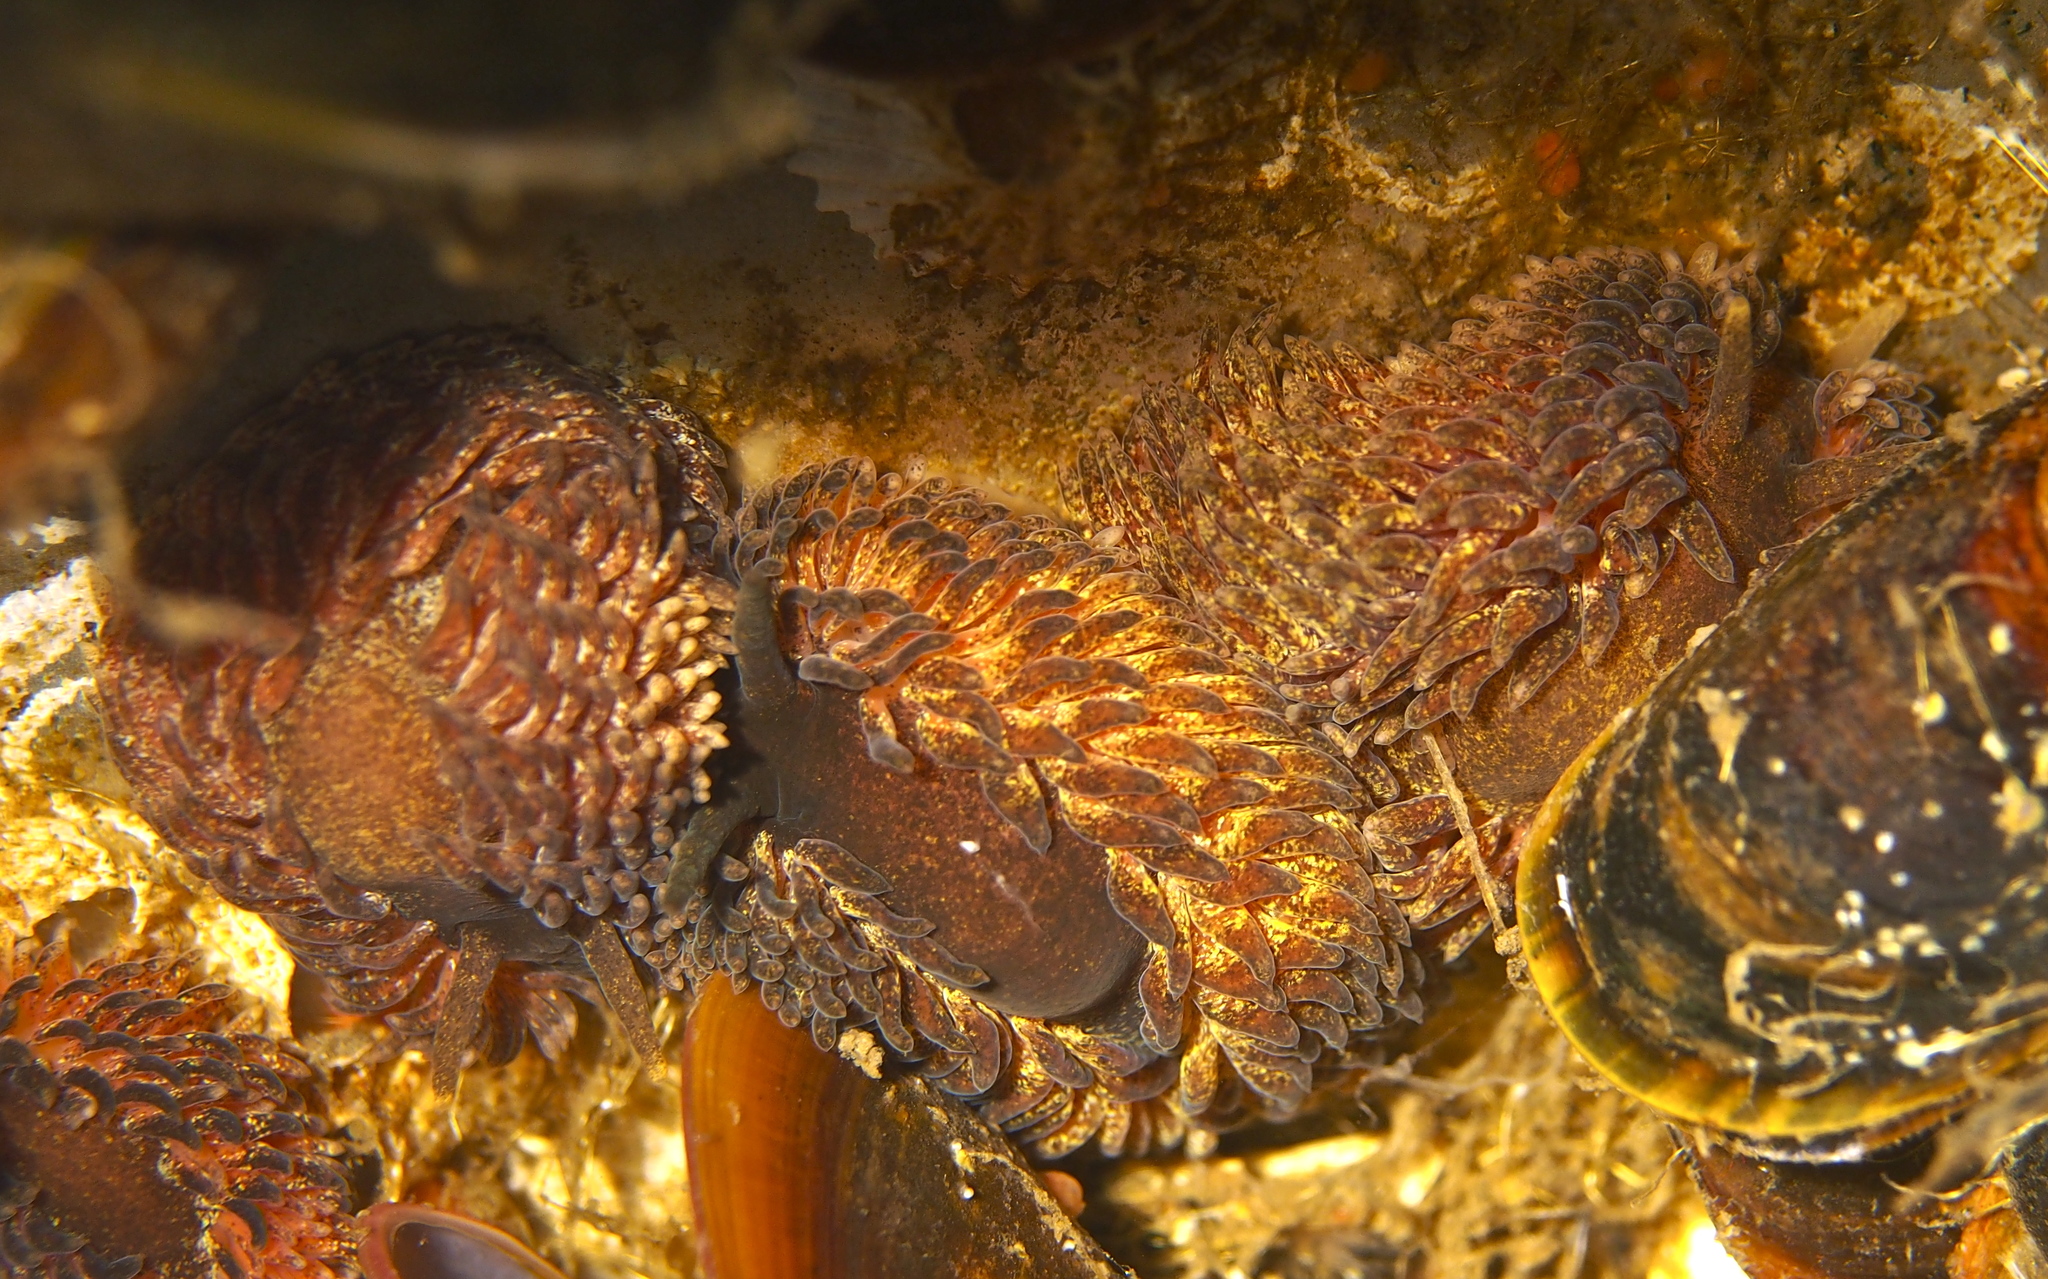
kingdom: Animalia
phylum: Mollusca
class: Gastropoda
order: Nudibranchia
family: Aeolidiidae
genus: Aeolidia
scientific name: Aeolidia papillosa
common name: Common grey sea slug
